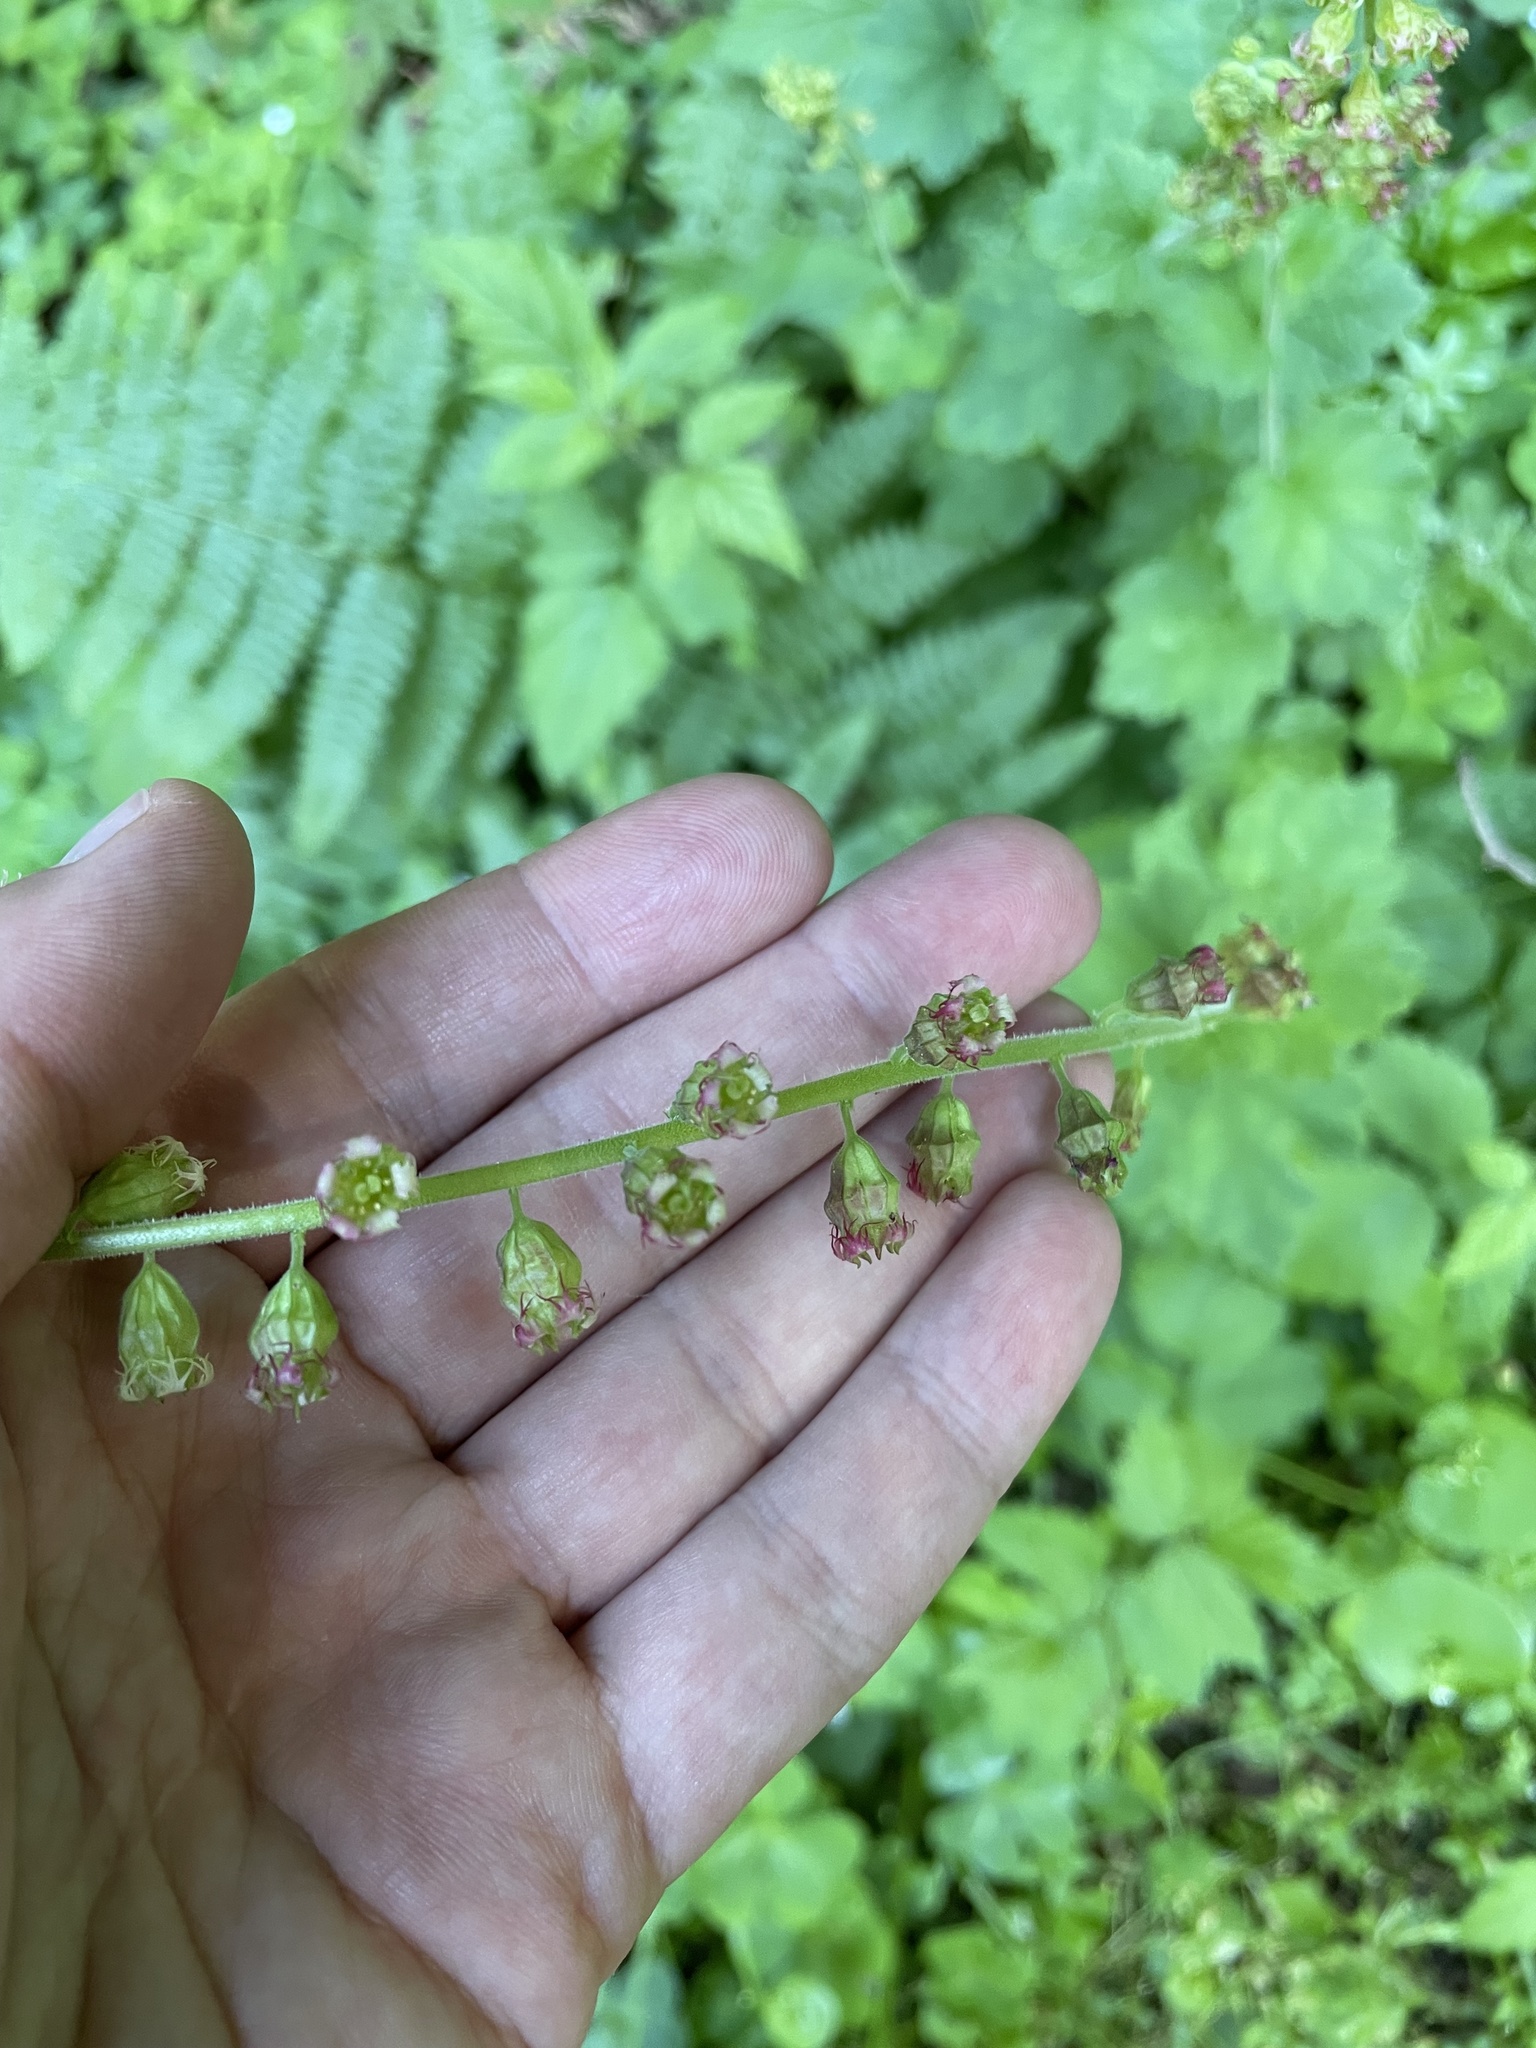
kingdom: Plantae
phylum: Tracheophyta
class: Magnoliopsida
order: Saxifragales
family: Saxifragaceae
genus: Tellima
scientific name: Tellima grandiflora
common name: Fringecups
